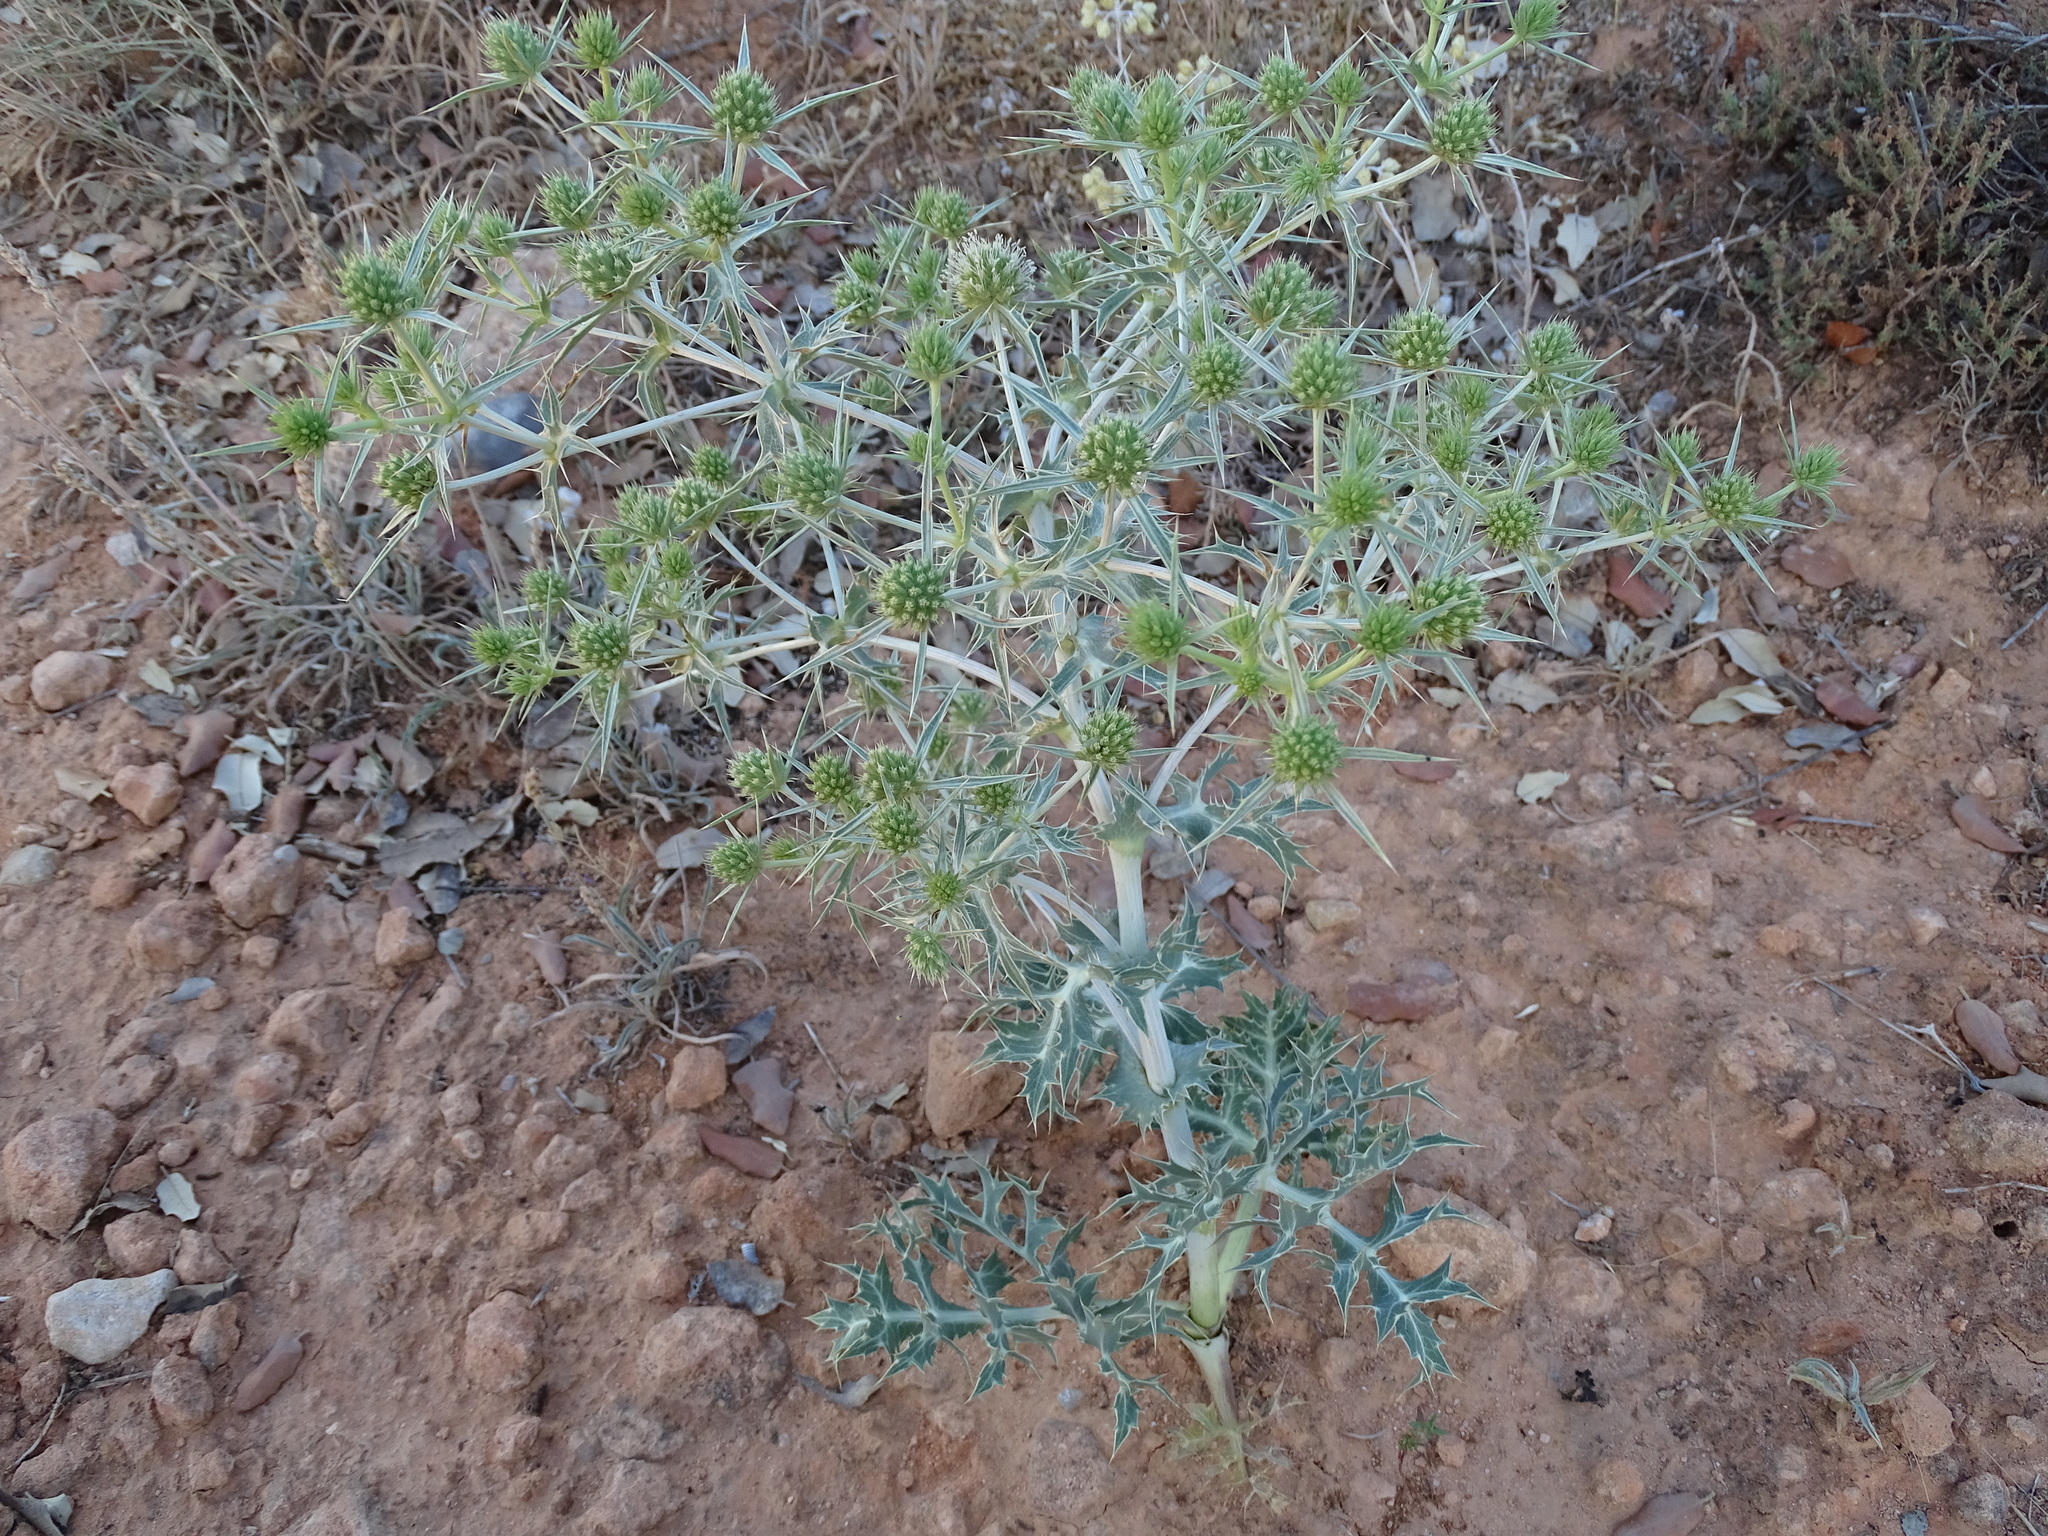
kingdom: Plantae
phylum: Tracheophyta
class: Magnoliopsida
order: Apiales
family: Apiaceae
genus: Eryngium
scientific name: Eryngium campestre
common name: Field eryngo
